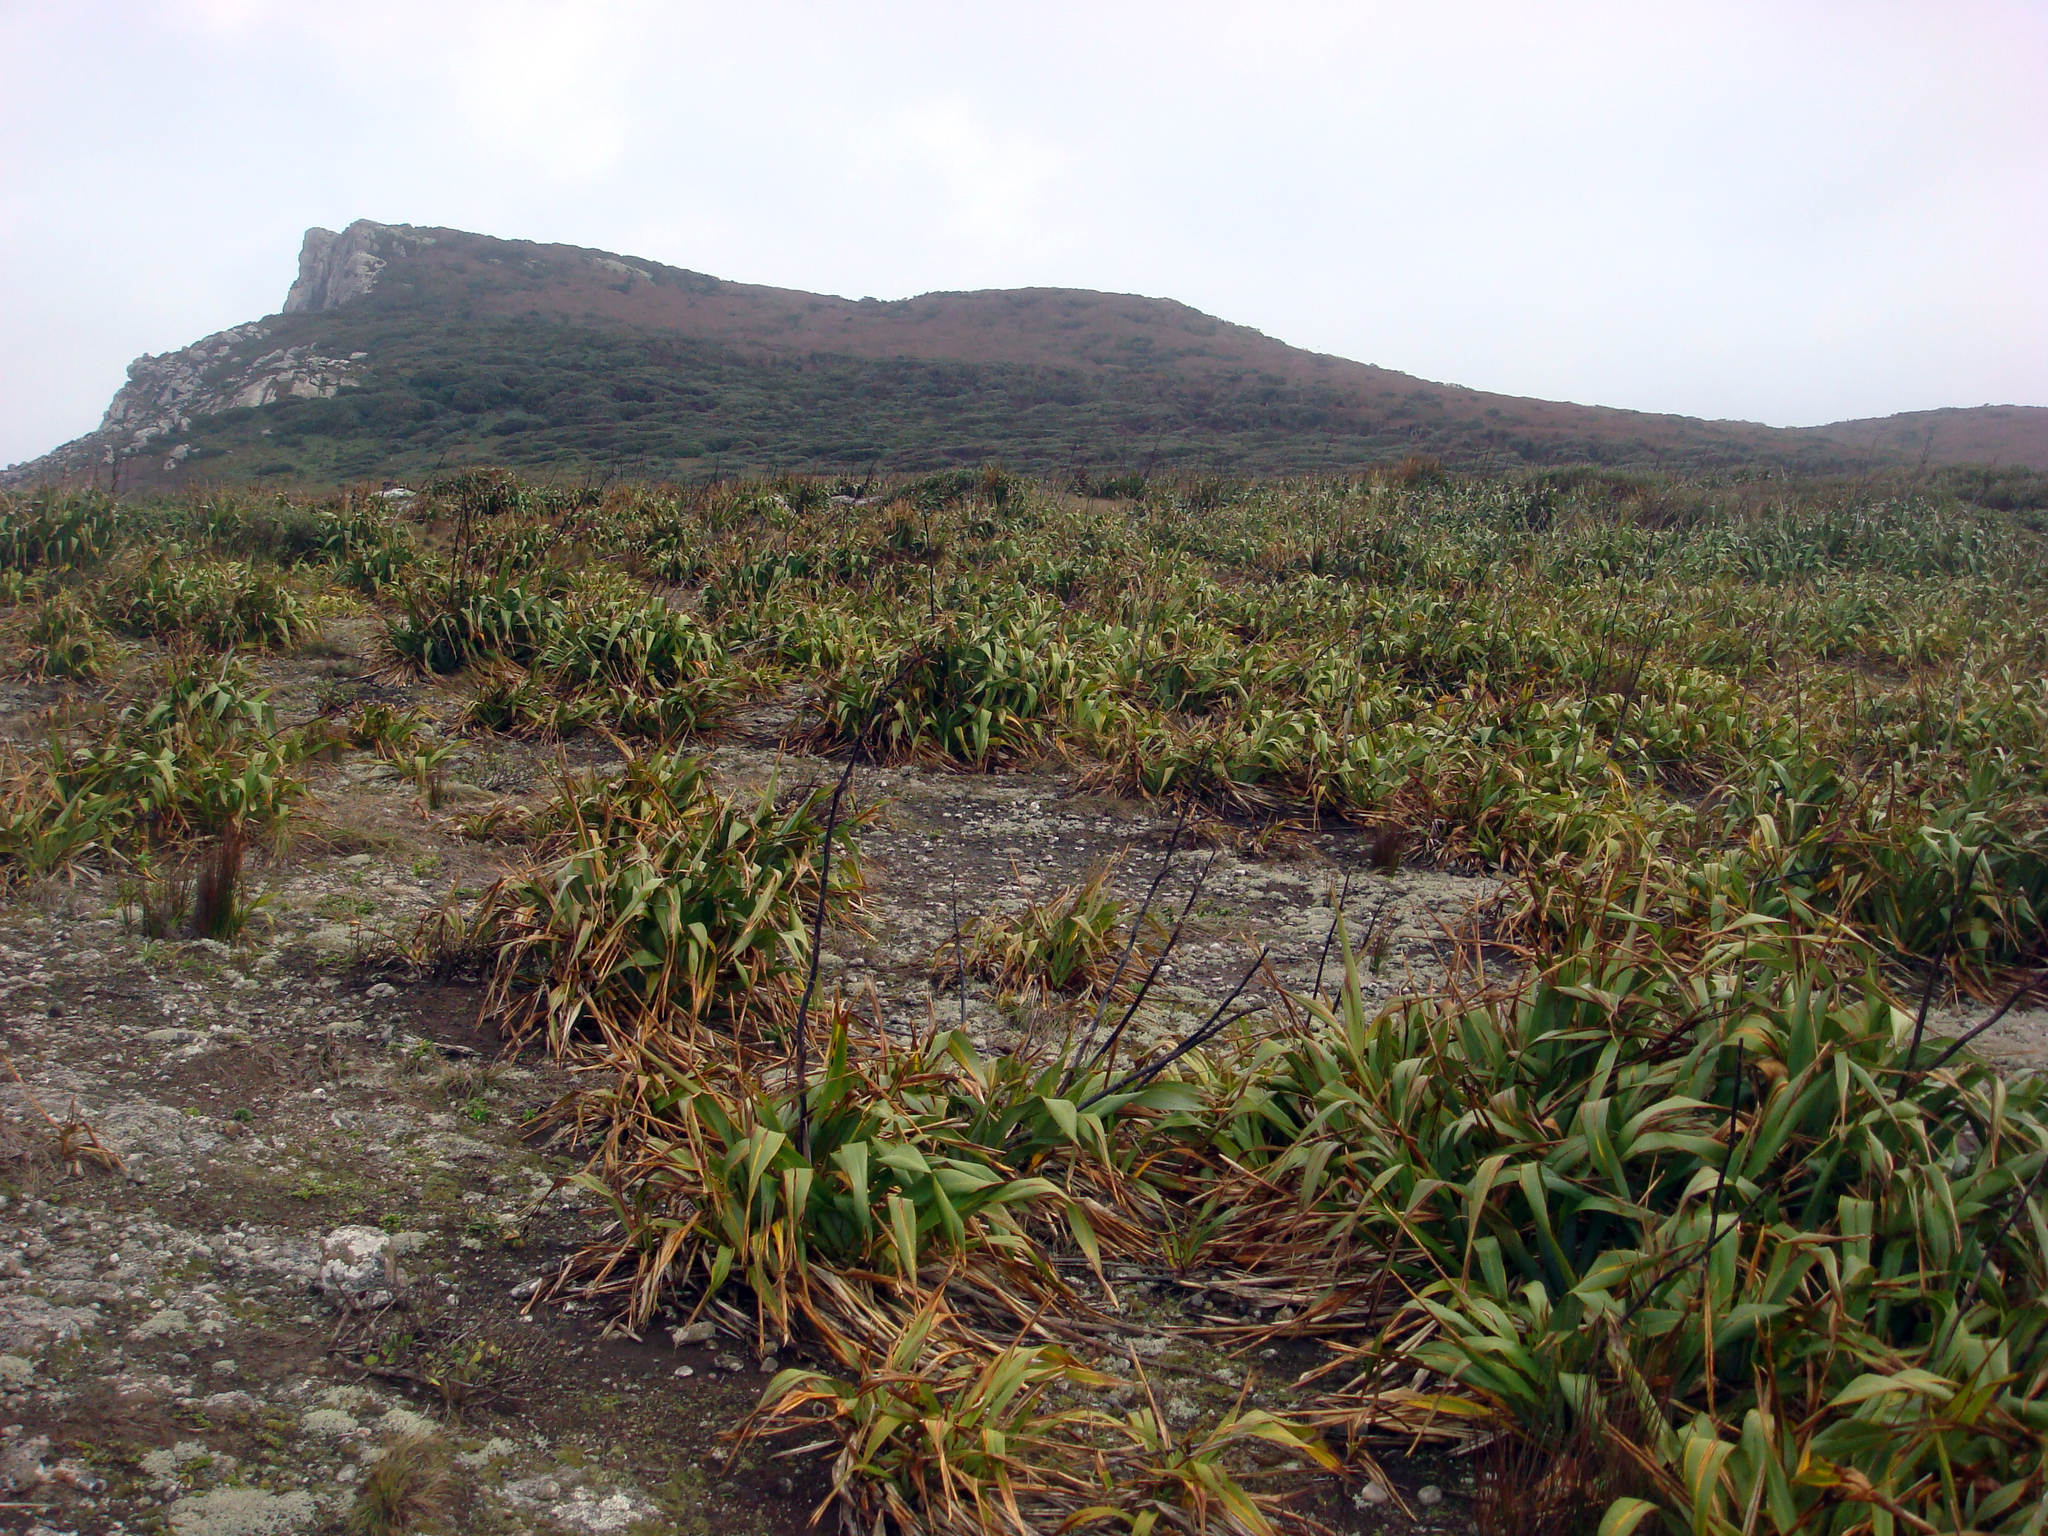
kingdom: Plantae
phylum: Tracheophyta
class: Liliopsida
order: Asparagales
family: Asphodelaceae
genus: Phormium
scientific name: Phormium tenax
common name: New zealand flax
